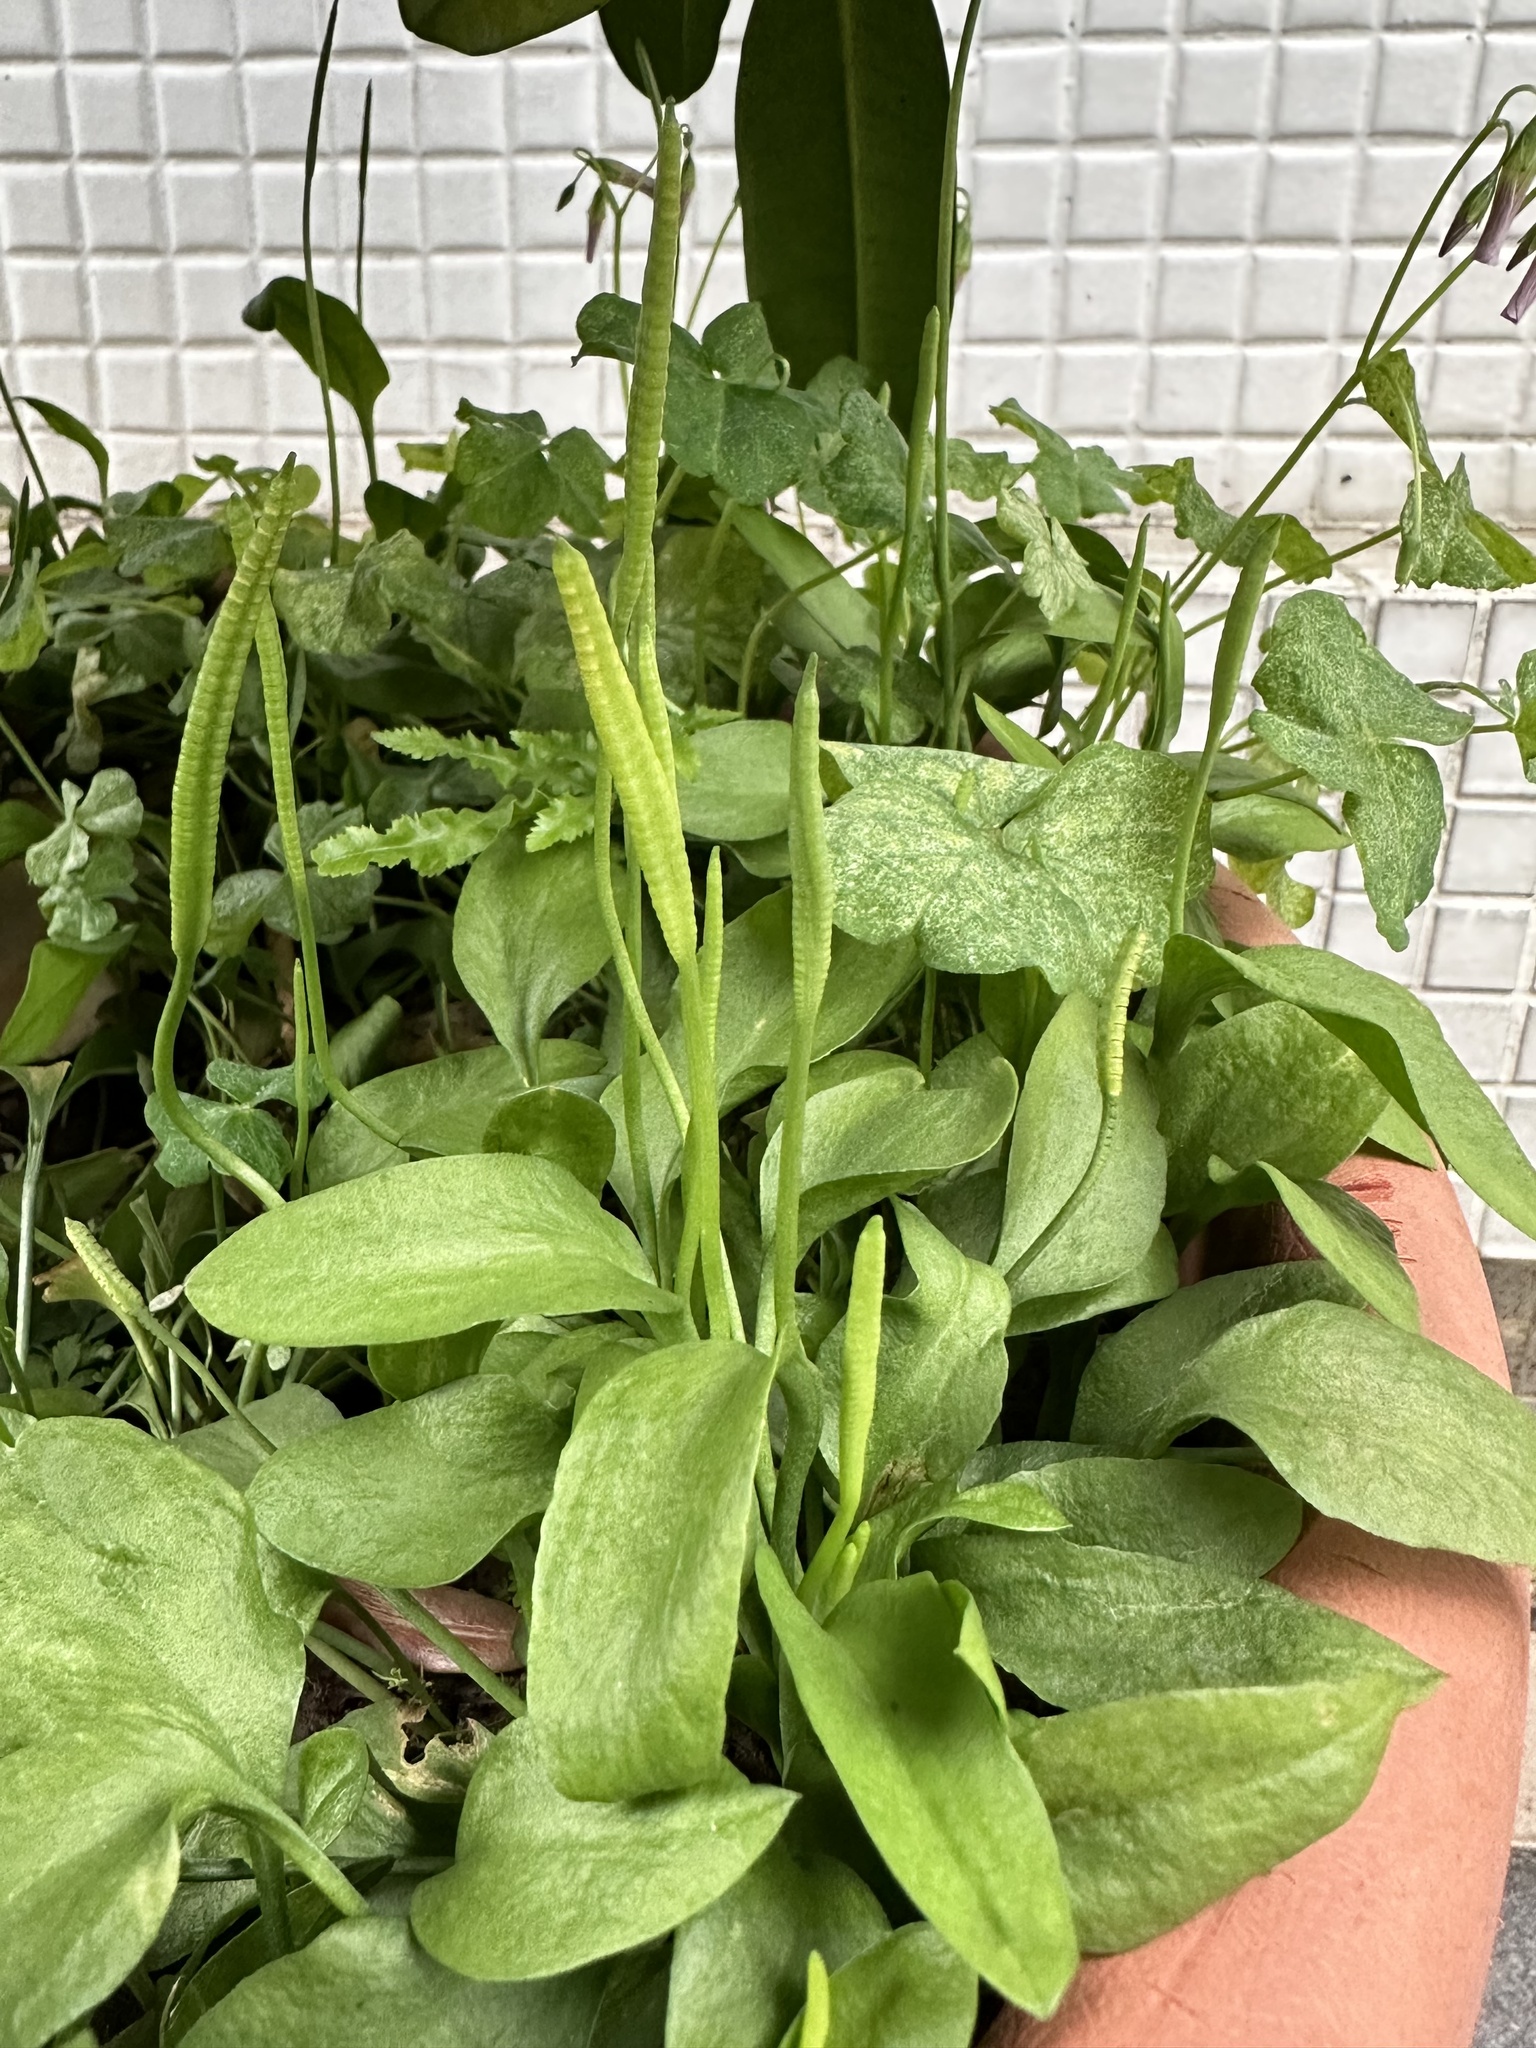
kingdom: Plantae
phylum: Tracheophyta
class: Polypodiopsida
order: Ophioglossales
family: Ophioglossaceae
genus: Ophioglossum
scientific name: Ophioglossum petiolatum
